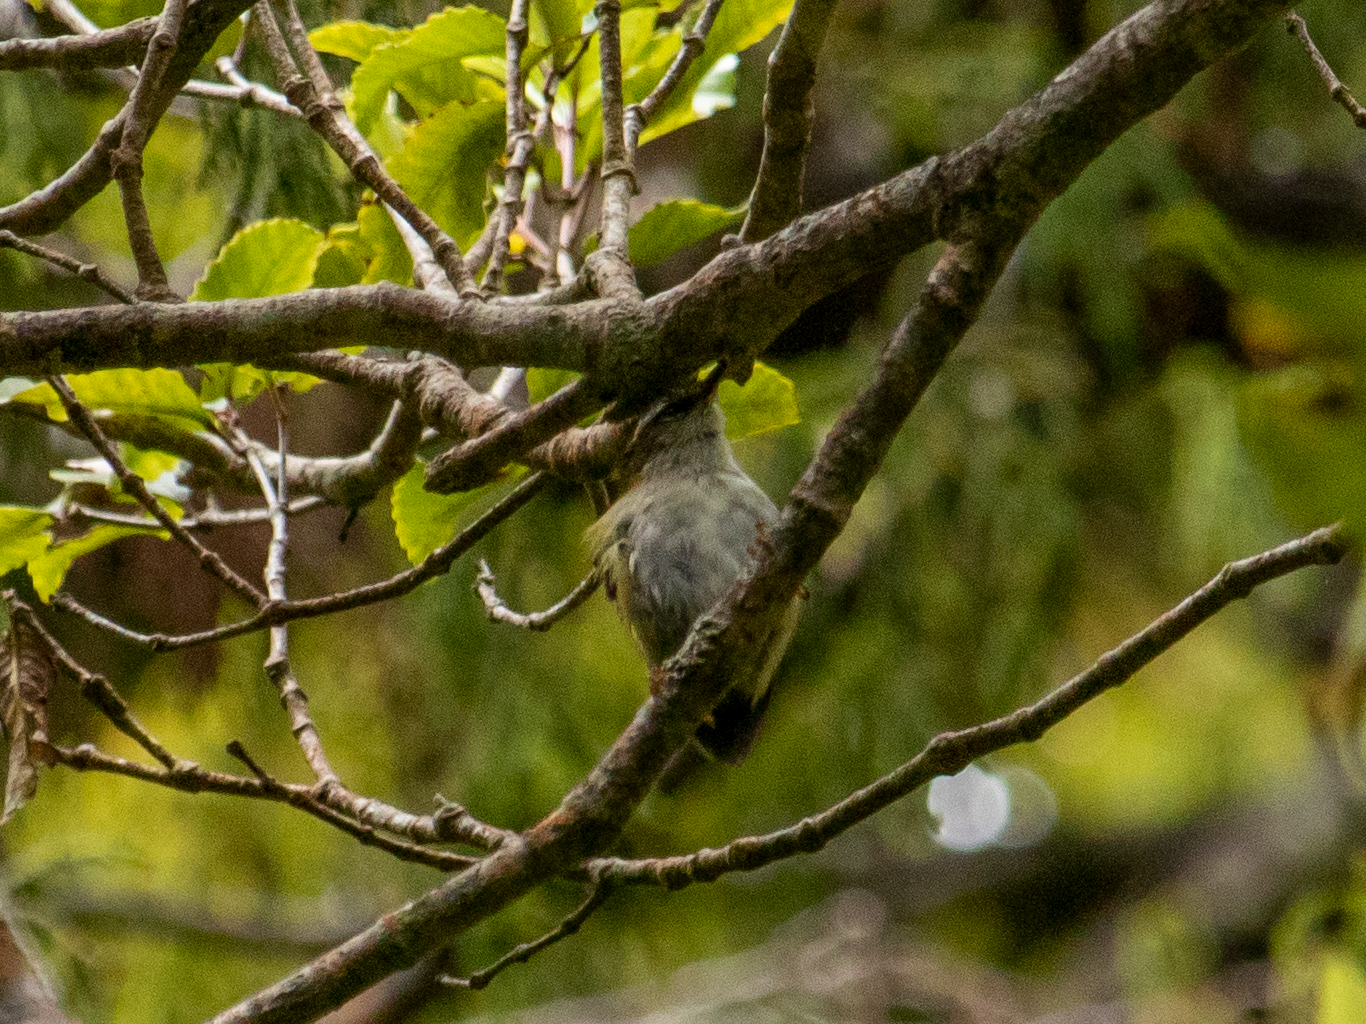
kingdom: Animalia
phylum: Chordata
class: Aves
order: Passeriformes
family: Acanthisittidae
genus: Acanthisitta
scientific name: Acanthisitta chloris
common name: Rifleman
